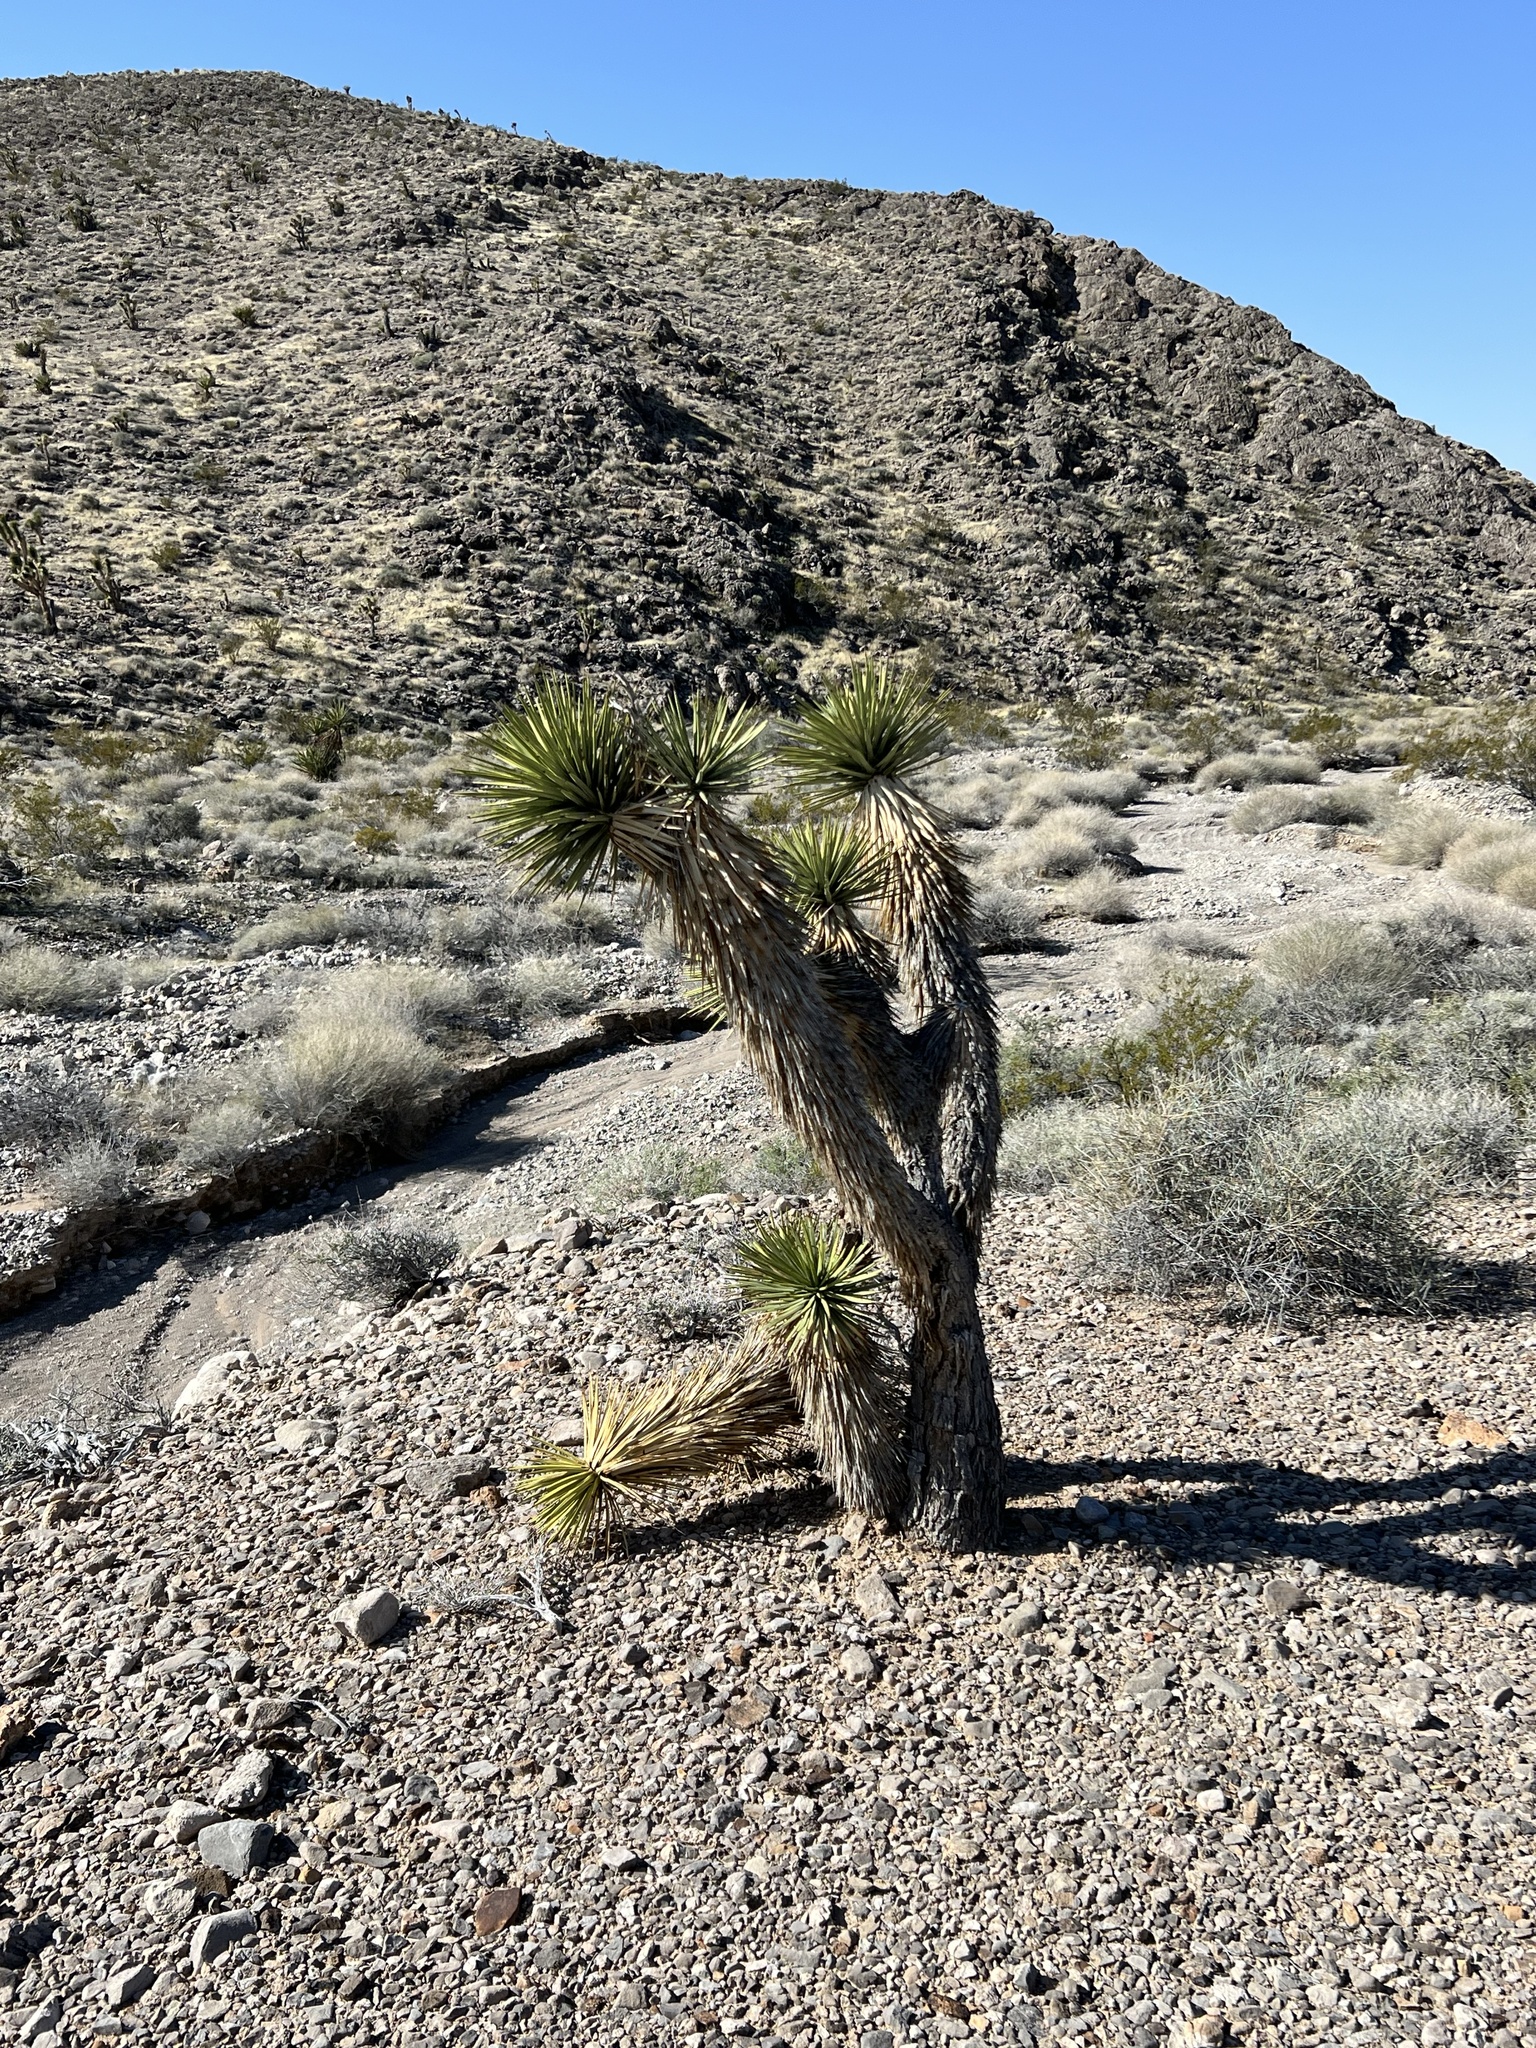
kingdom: Plantae
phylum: Tracheophyta
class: Liliopsida
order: Asparagales
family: Asparagaceae
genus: Yucca
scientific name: Yucca brevifolia
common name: Joshua tree
